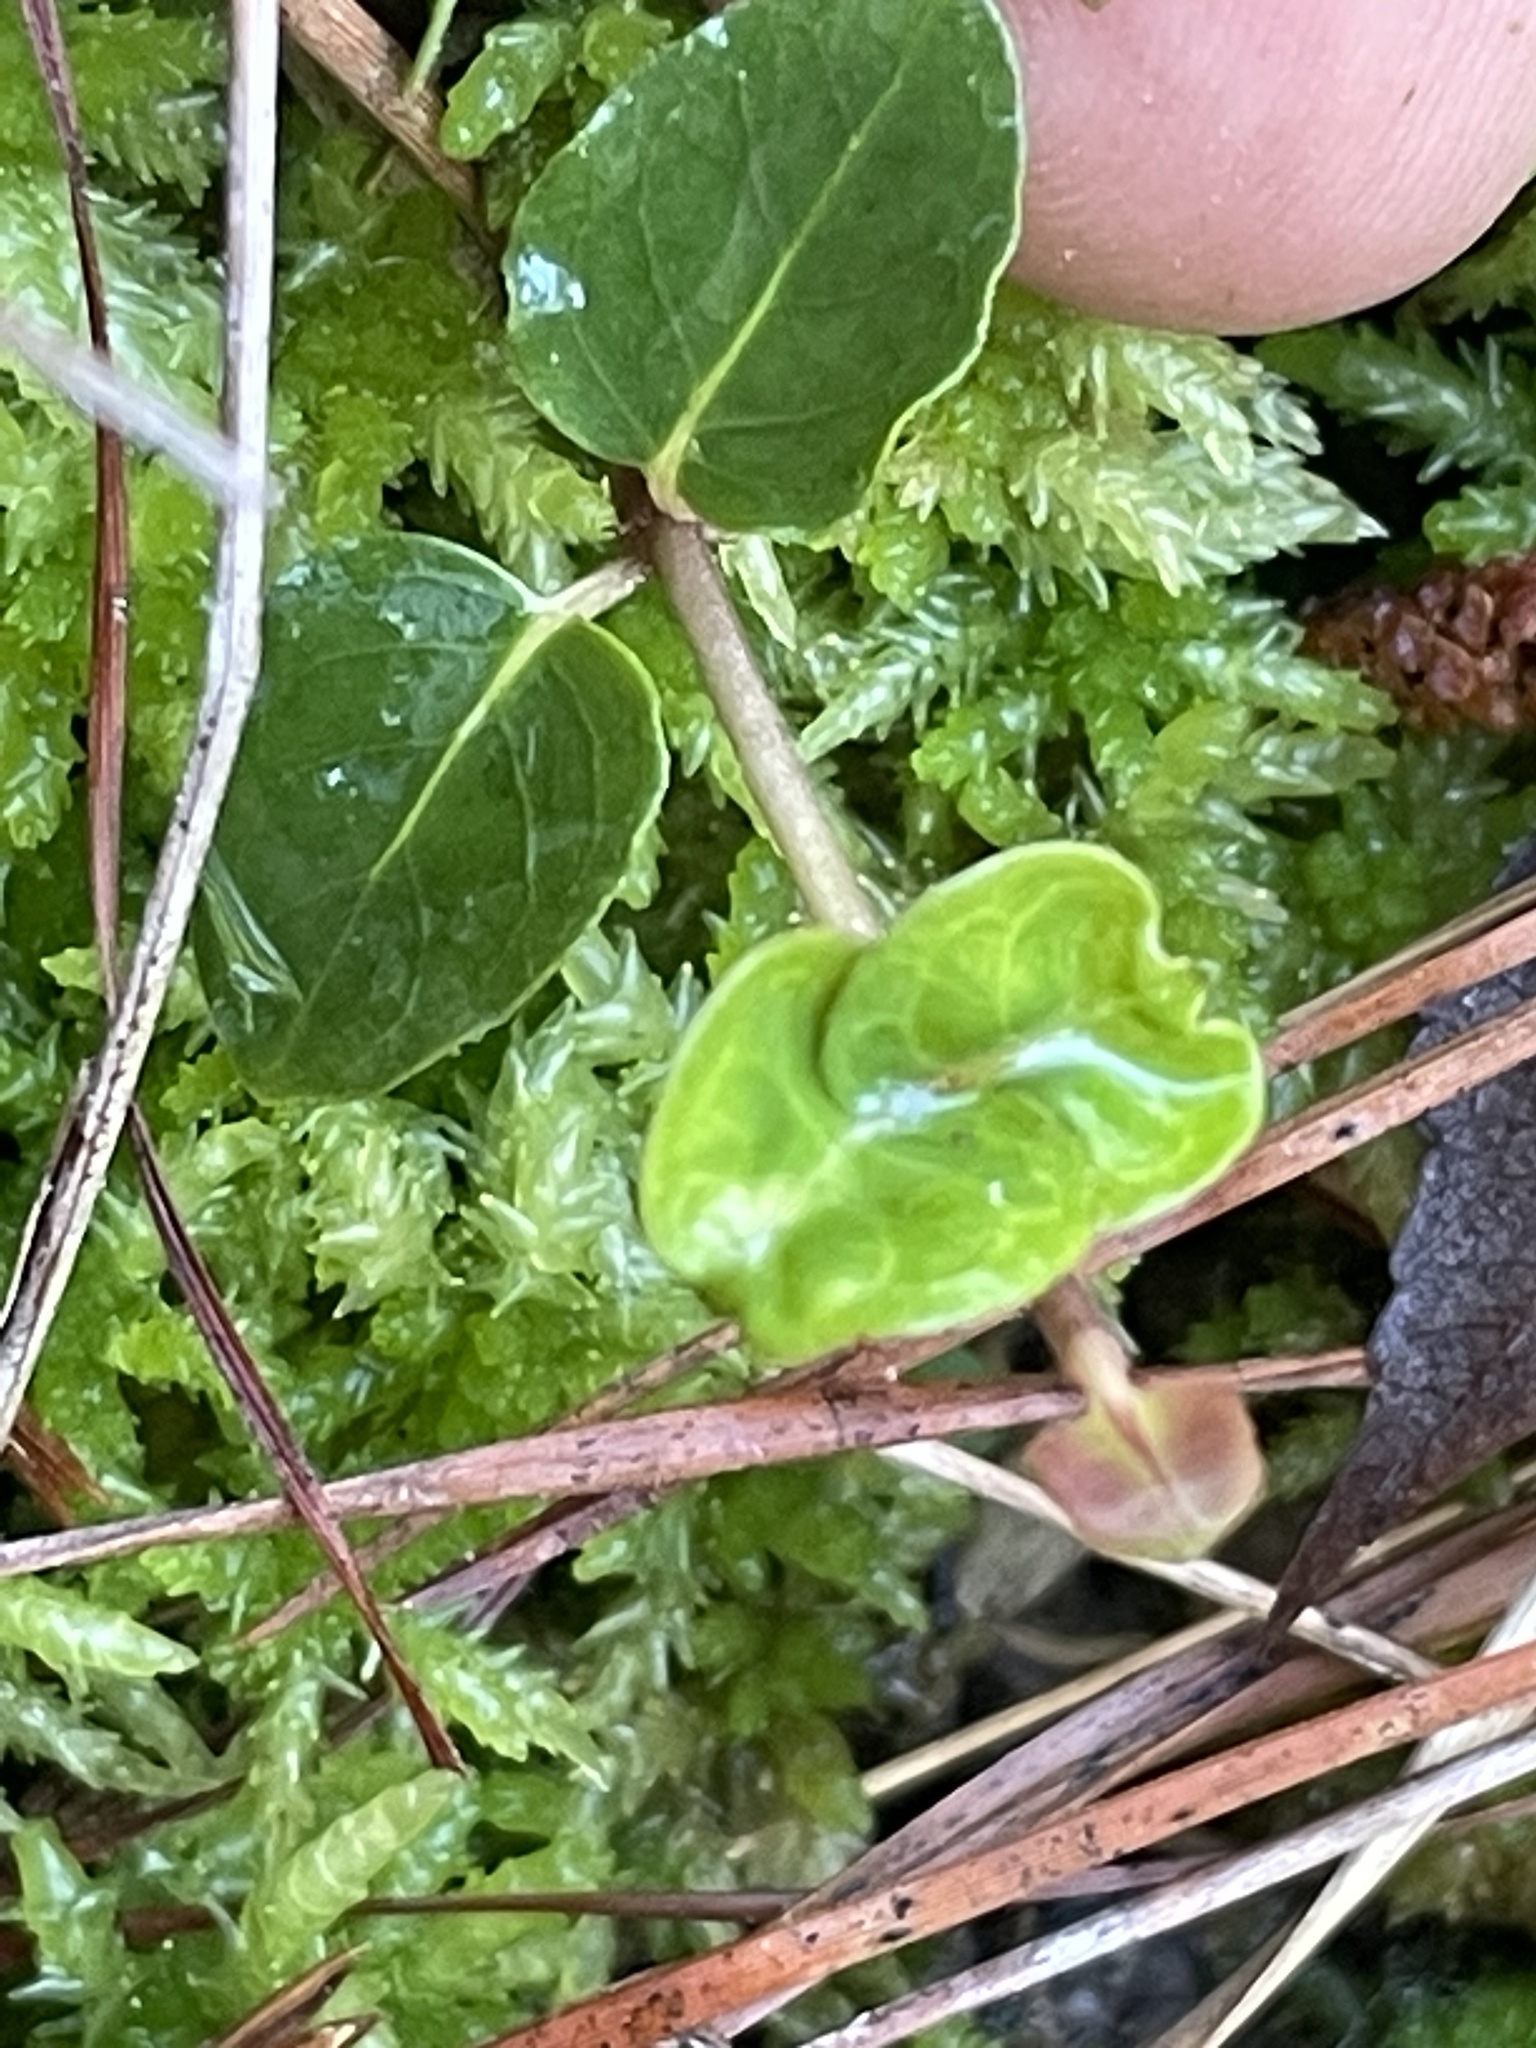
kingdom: Plantae
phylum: Tracheophyta
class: Magnoliopsida
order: Gentianales
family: Rubiaceae
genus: Mitchella
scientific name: Mitchella repens
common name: Partridge-berry
